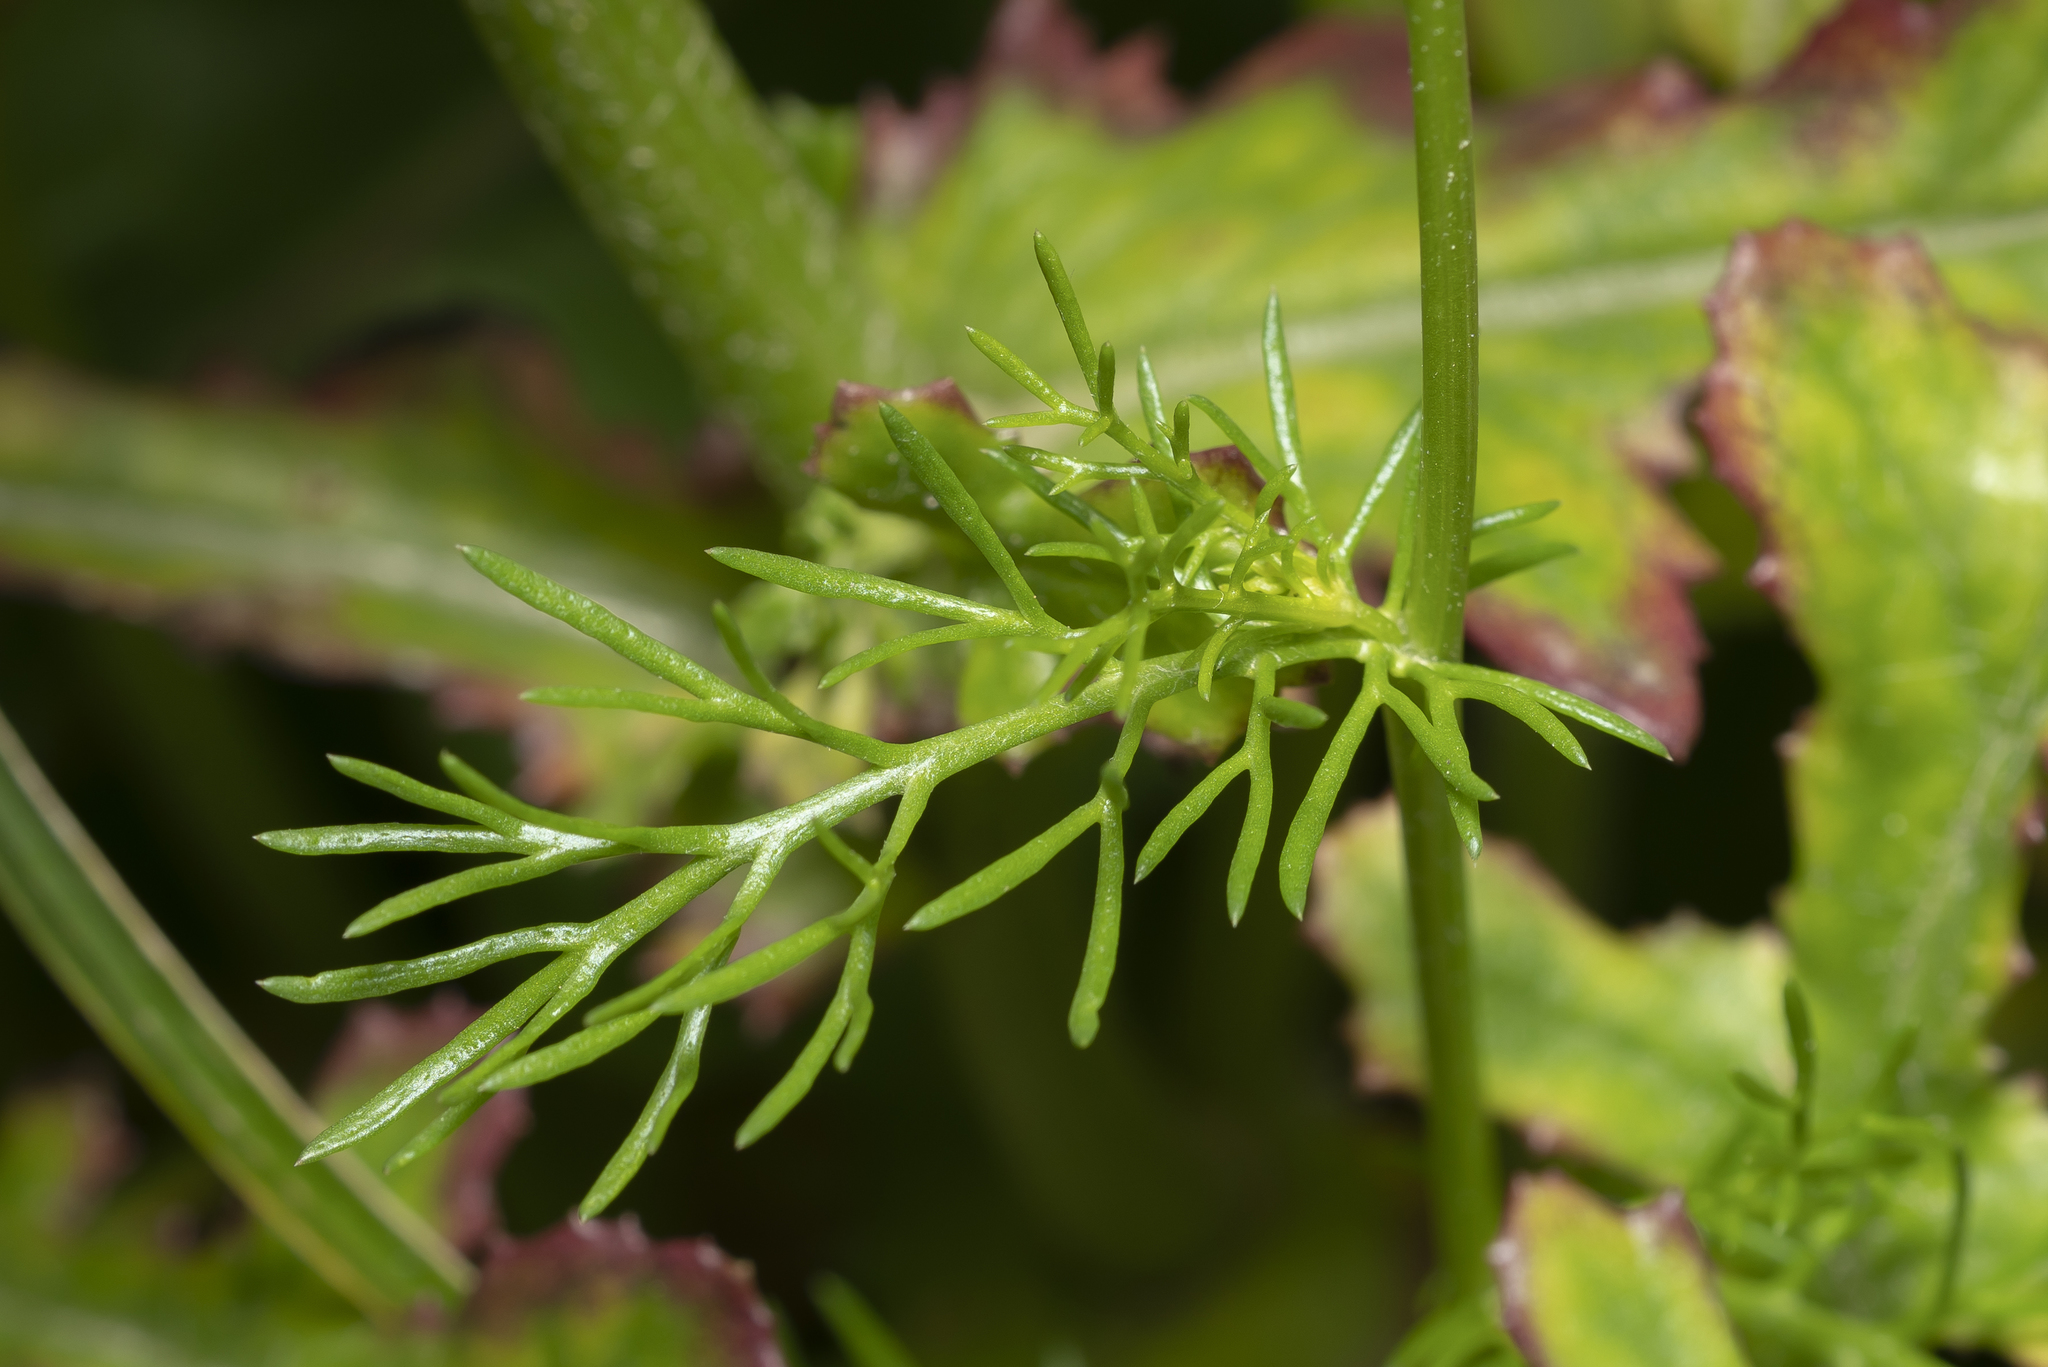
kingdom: Plantae
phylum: Tracheophyta
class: Magnoliopsida
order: Asterales
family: Asteraceae
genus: Matricaria
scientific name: Matricaria chamomilla
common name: Scented mayweed
